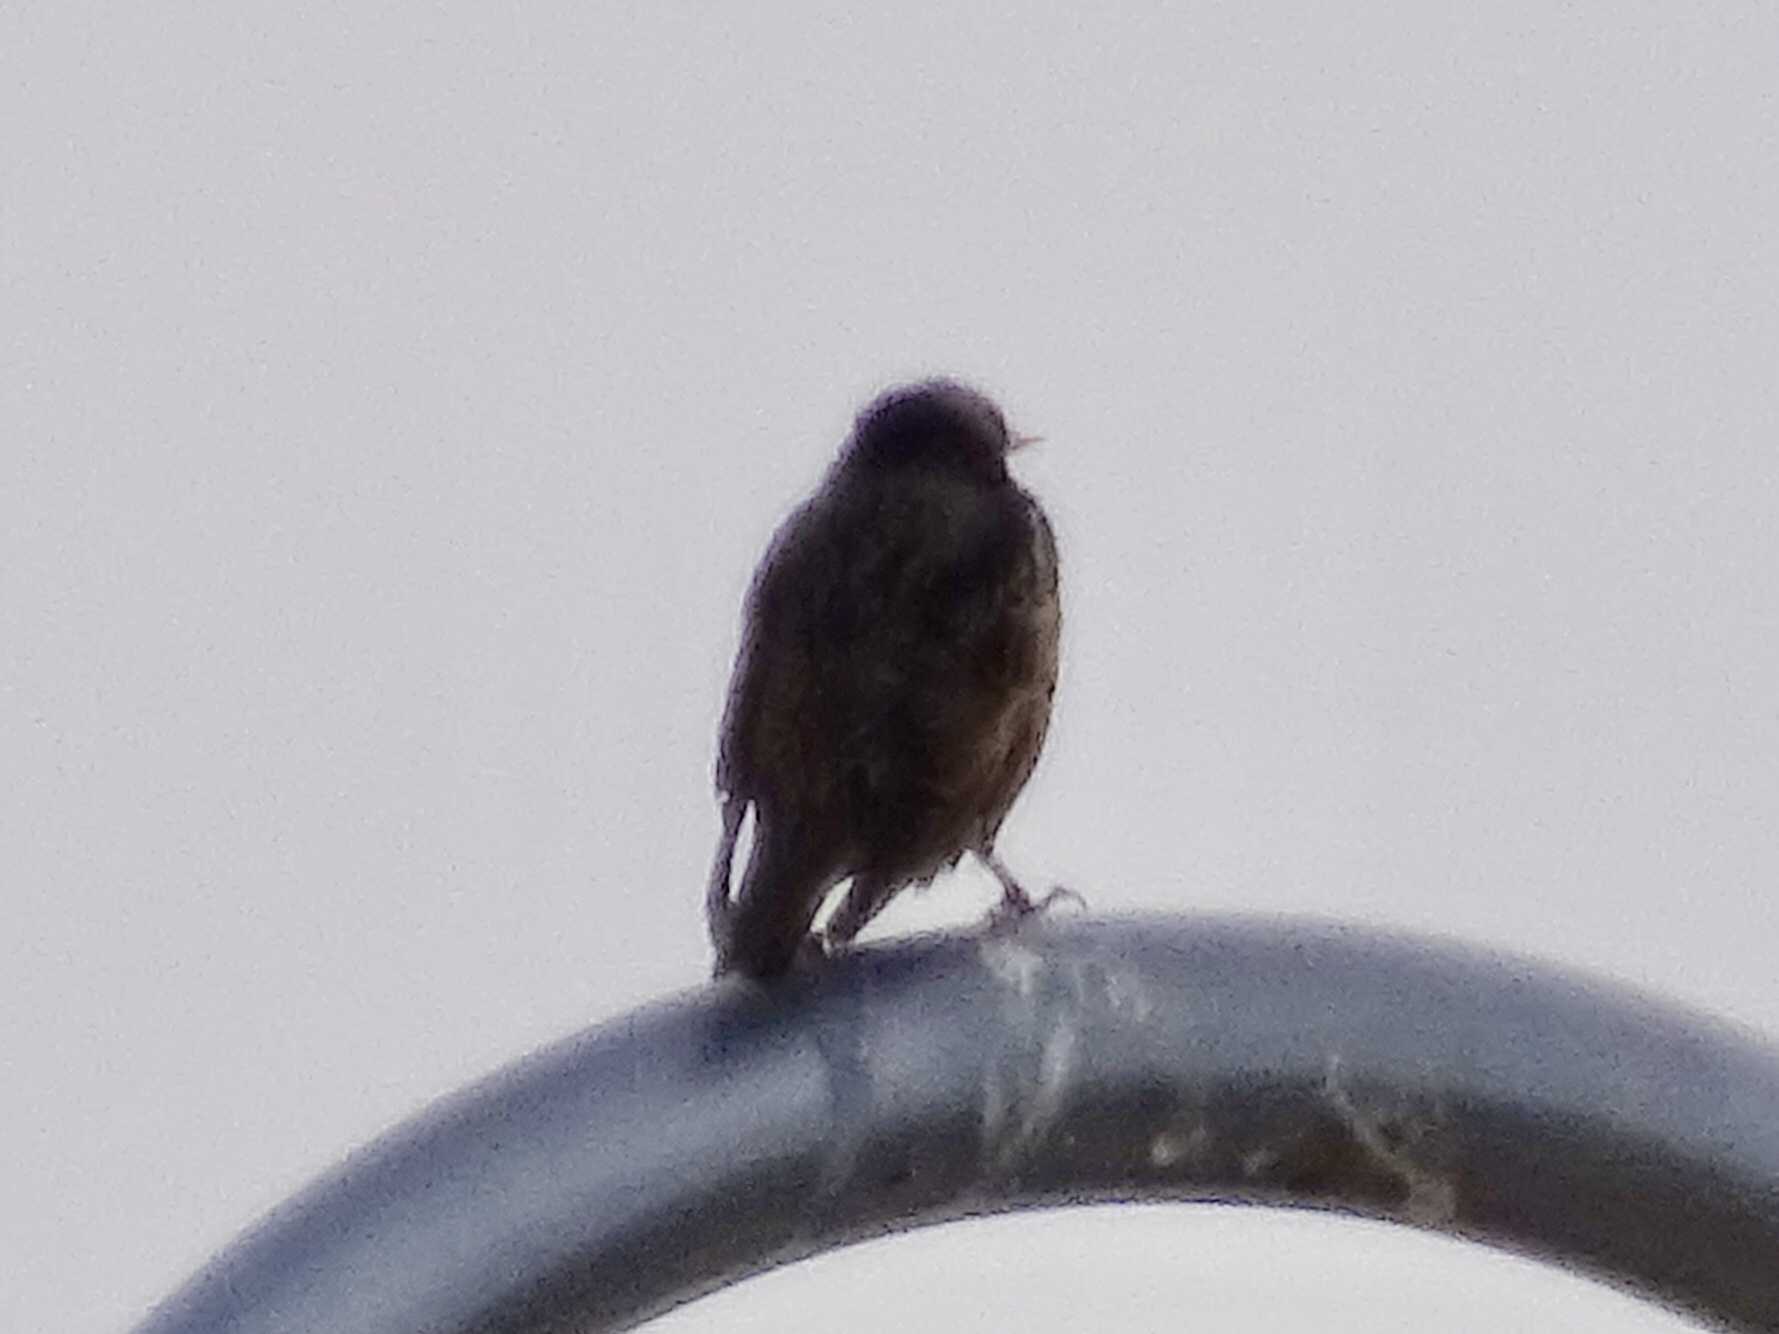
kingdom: Animalia
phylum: Chordata
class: Aves
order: Passeriformes
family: Sturnidae
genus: Sturnus
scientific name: Sturnus vulgaris
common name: Common starling
